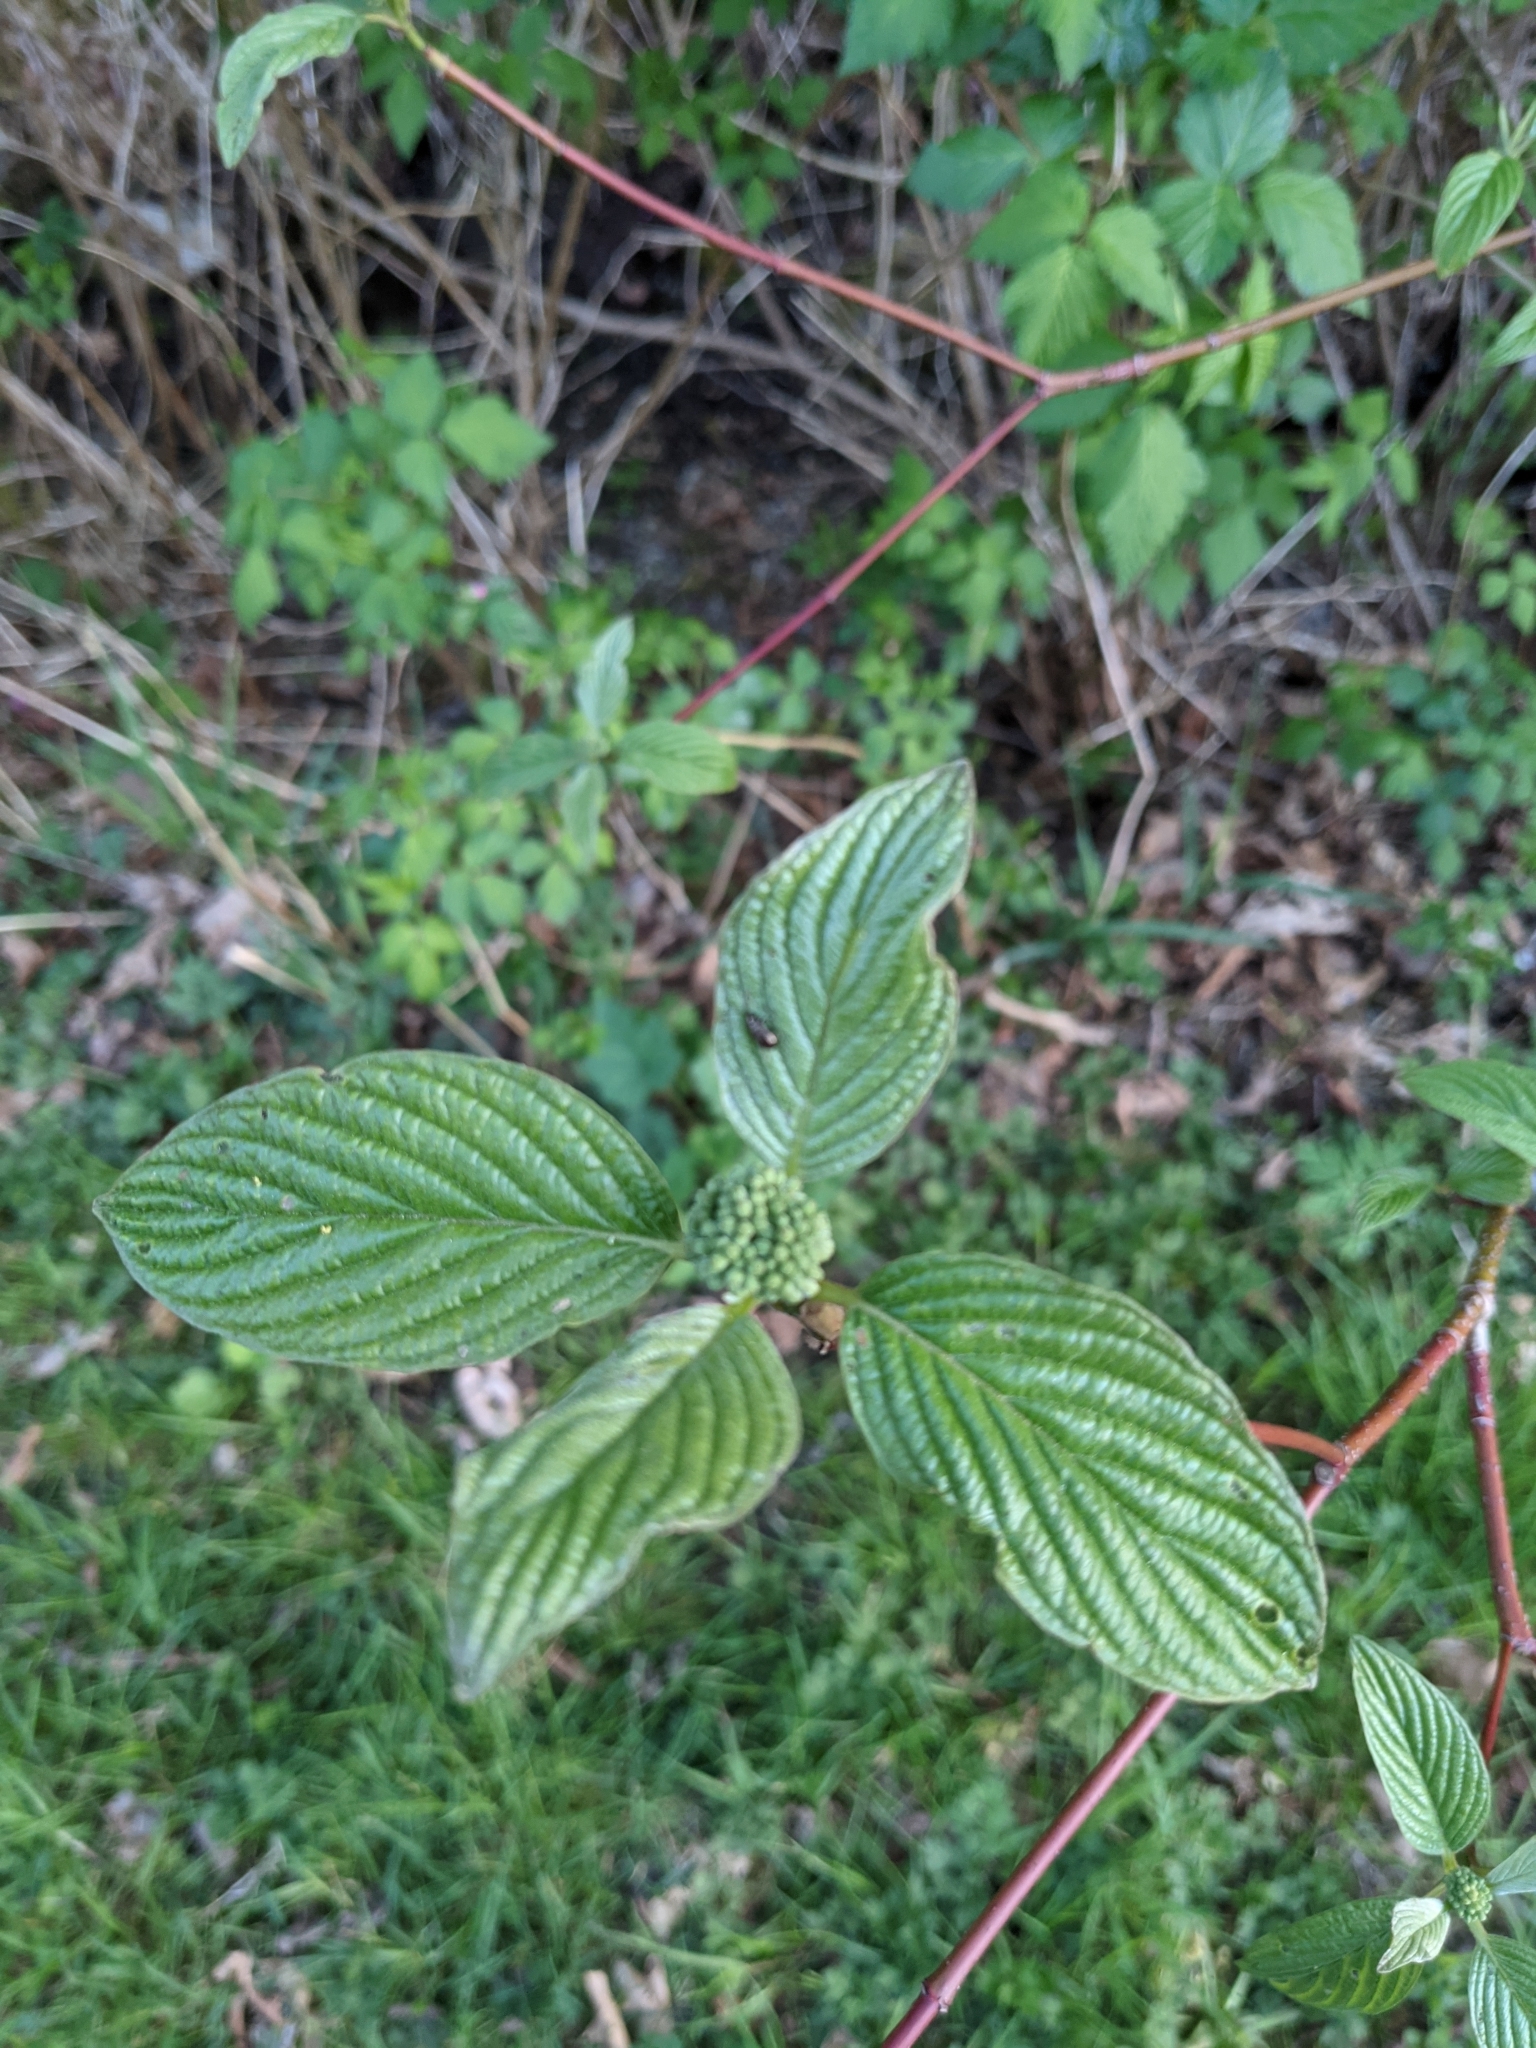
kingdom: Plantae
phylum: Tracheophyta
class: Magnoliopsida
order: Cornales
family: Cornaceae
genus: Cornus
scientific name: Cornus sericea
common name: Red-osier dogwood
